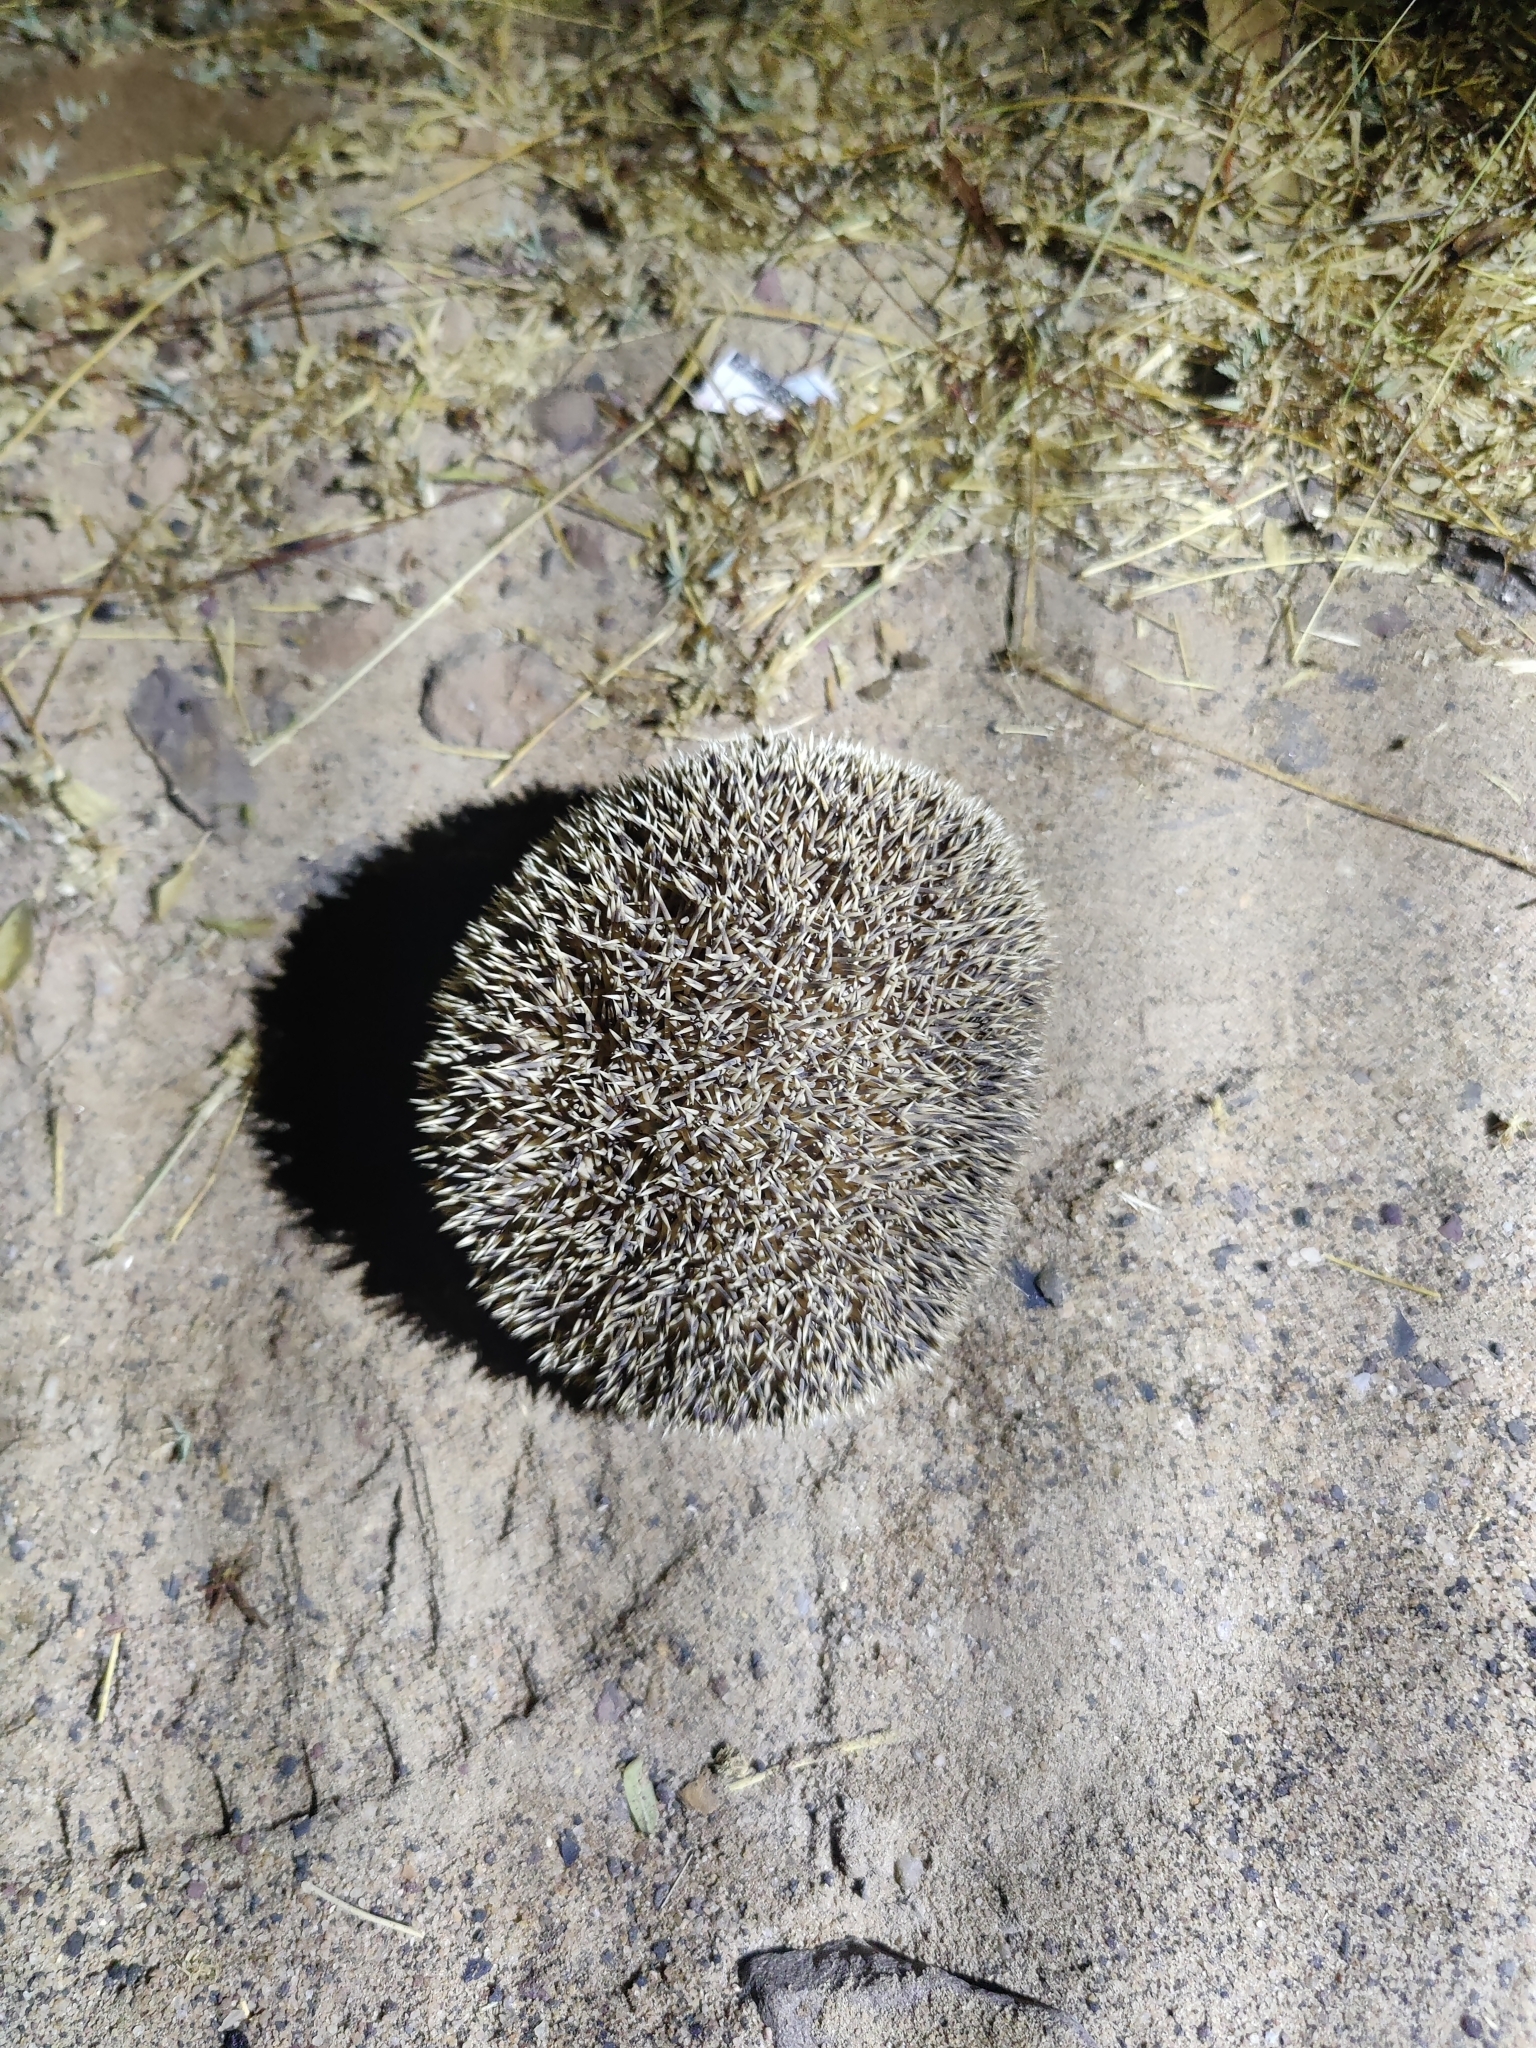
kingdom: Animalia
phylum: Chordata
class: Mammalia
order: Erinaceomorpha
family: Erinaceidae
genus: Hemiechinus
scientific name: Hemiechinus collaris
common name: Indian long-eared hedgehog
